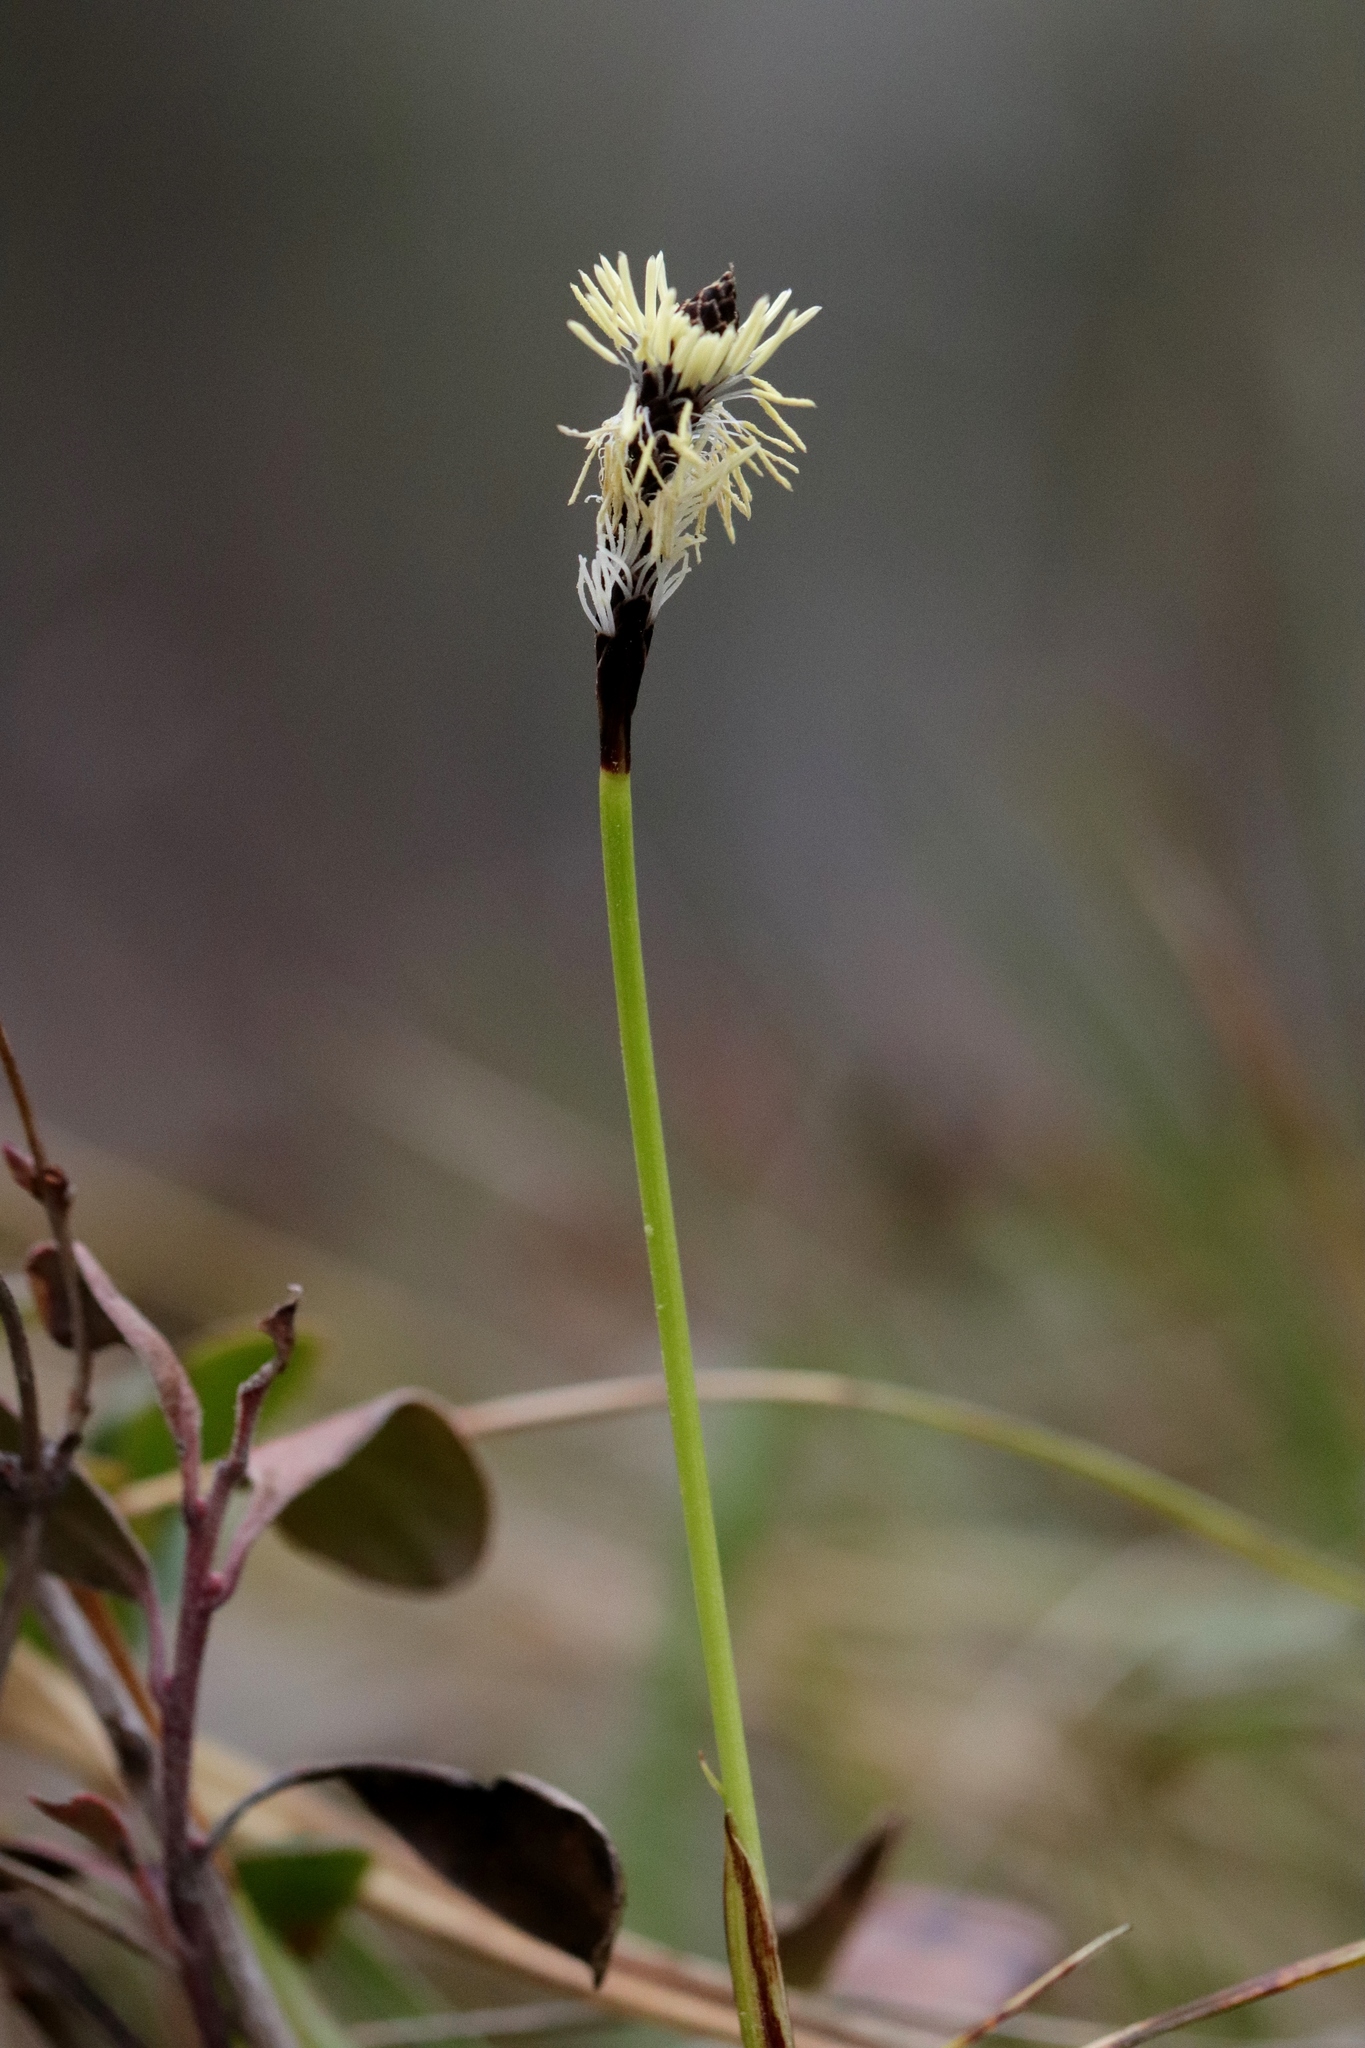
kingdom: Plantae
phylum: Tracheophyta
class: Liliopsida
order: Poales
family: Cyperaceae
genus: Carex
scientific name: Carex concinnoides
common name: Northwest sedge
